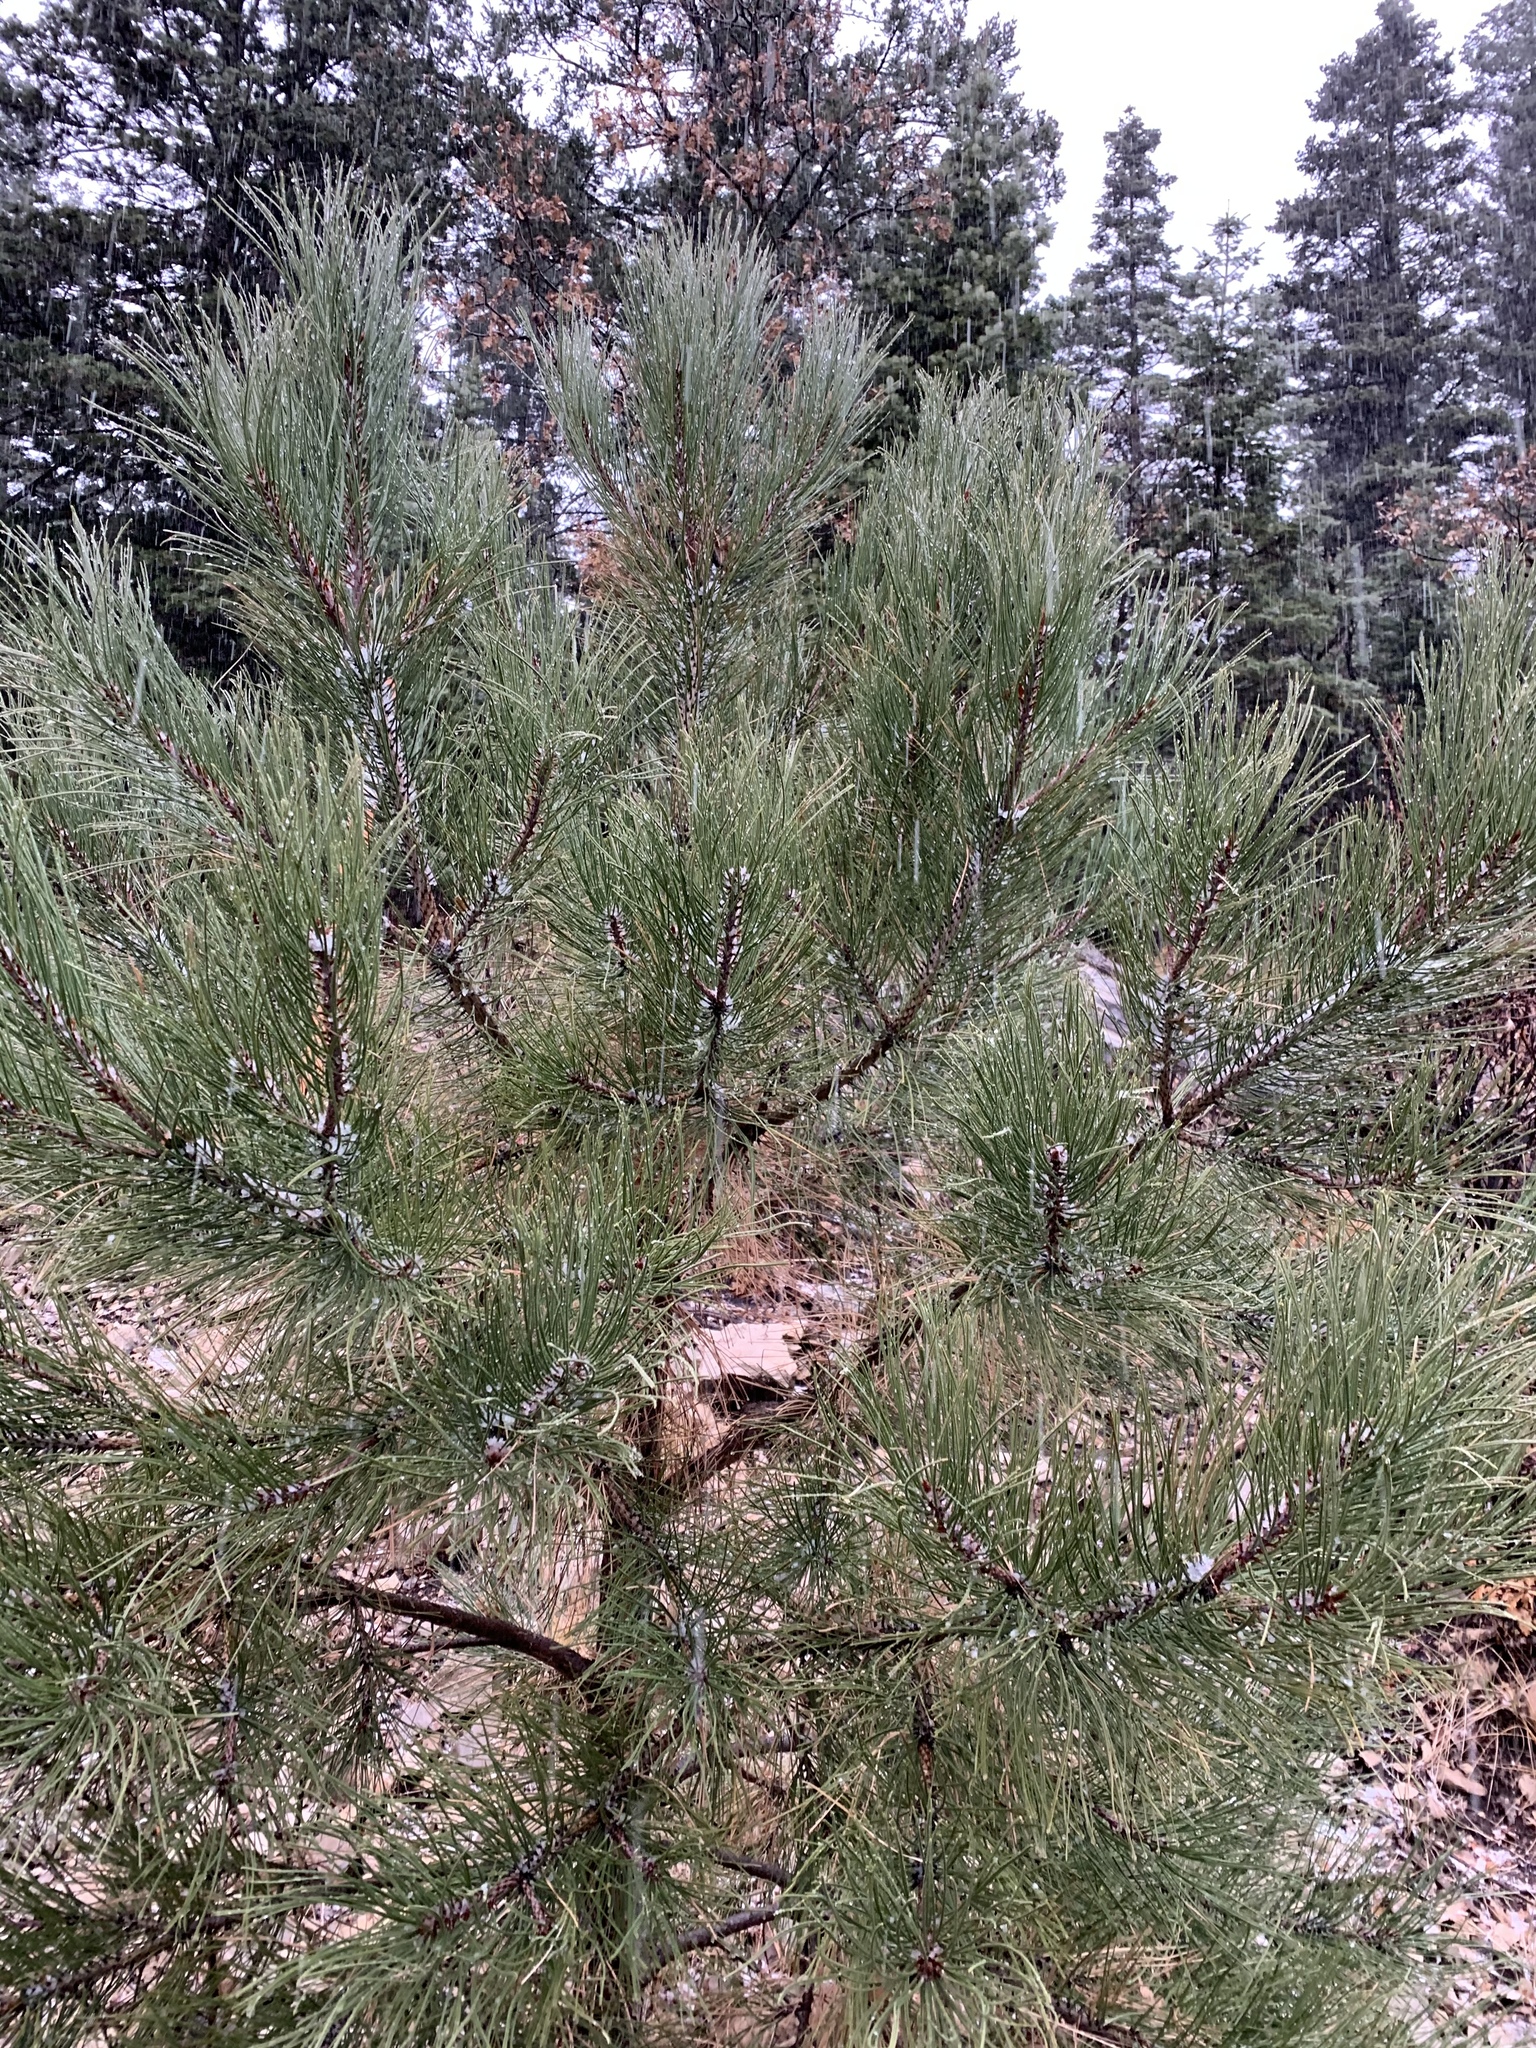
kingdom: Plantae
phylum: Tracheophyta
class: Pinopsida
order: Pinales
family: Pinaceae
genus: Pinus
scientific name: Pinus ponderosa
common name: Western yellow-pine
